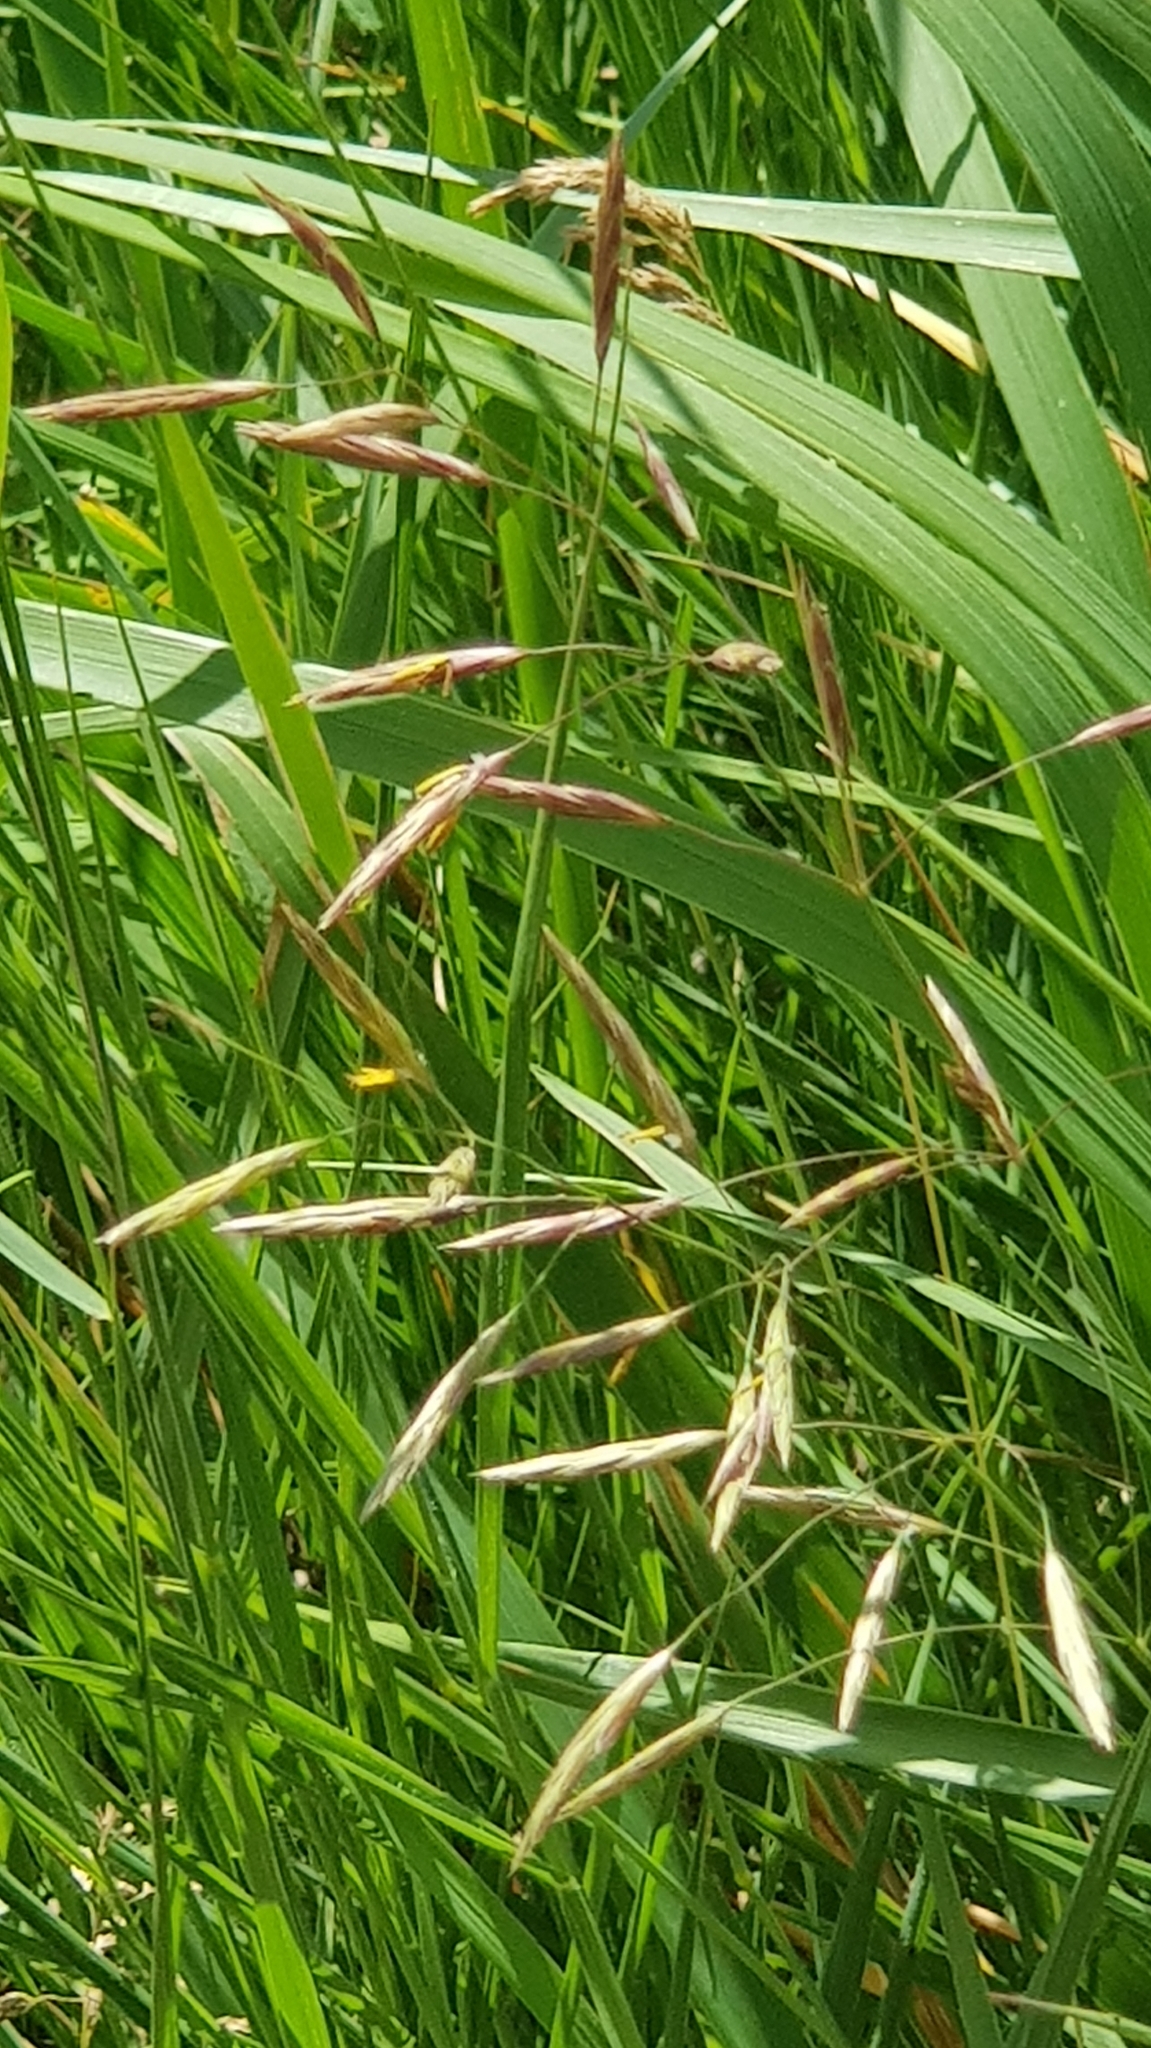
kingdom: Plantae
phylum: Tracheophyta
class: Liliopsida
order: Poales
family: Poaceae
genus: Bromus
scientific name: Bromus inermis
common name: Smooth brome
